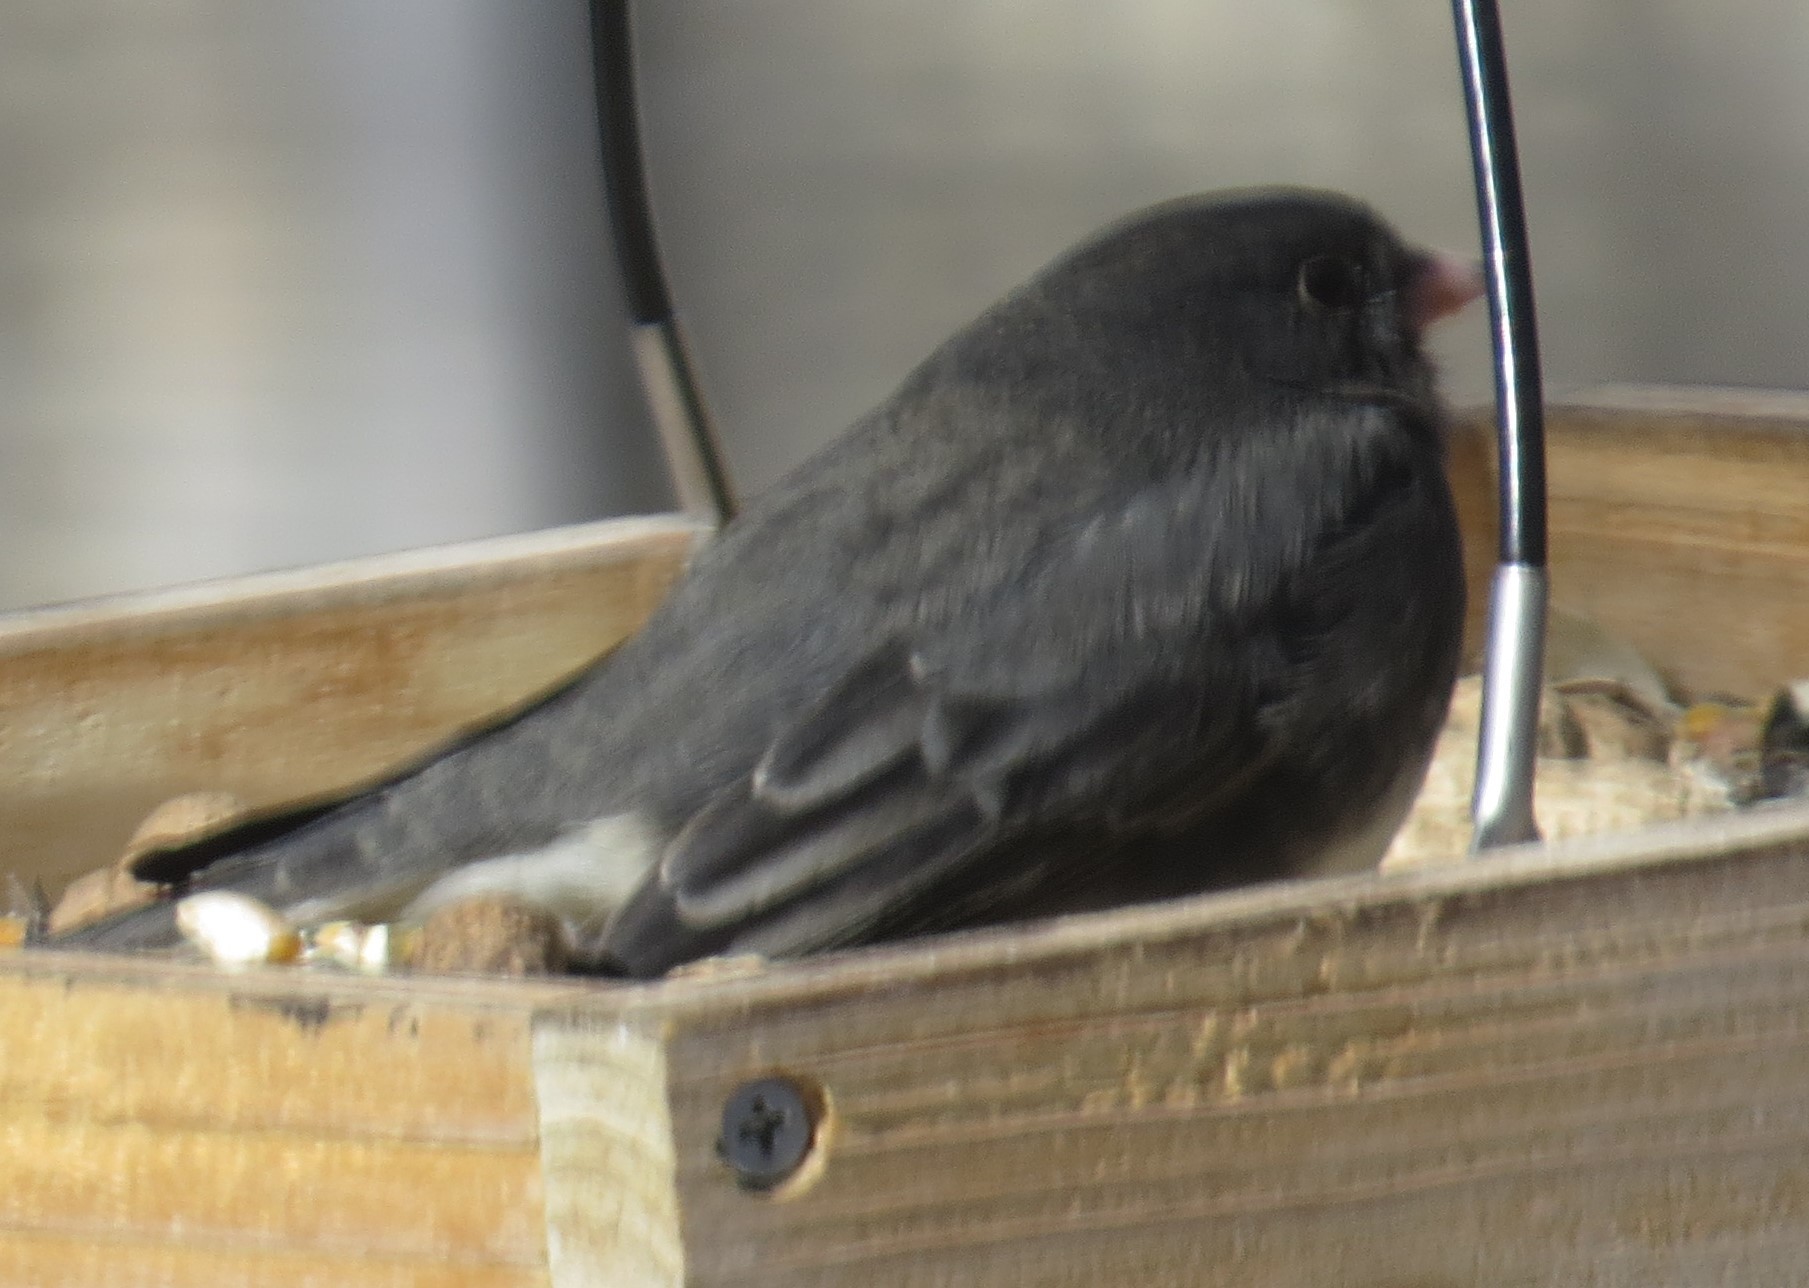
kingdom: Animalia
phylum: Chordata
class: Aves
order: Passeriformes
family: Passerellidae
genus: Junco
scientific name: Junco hyemalis
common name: Dark-eyed junco
